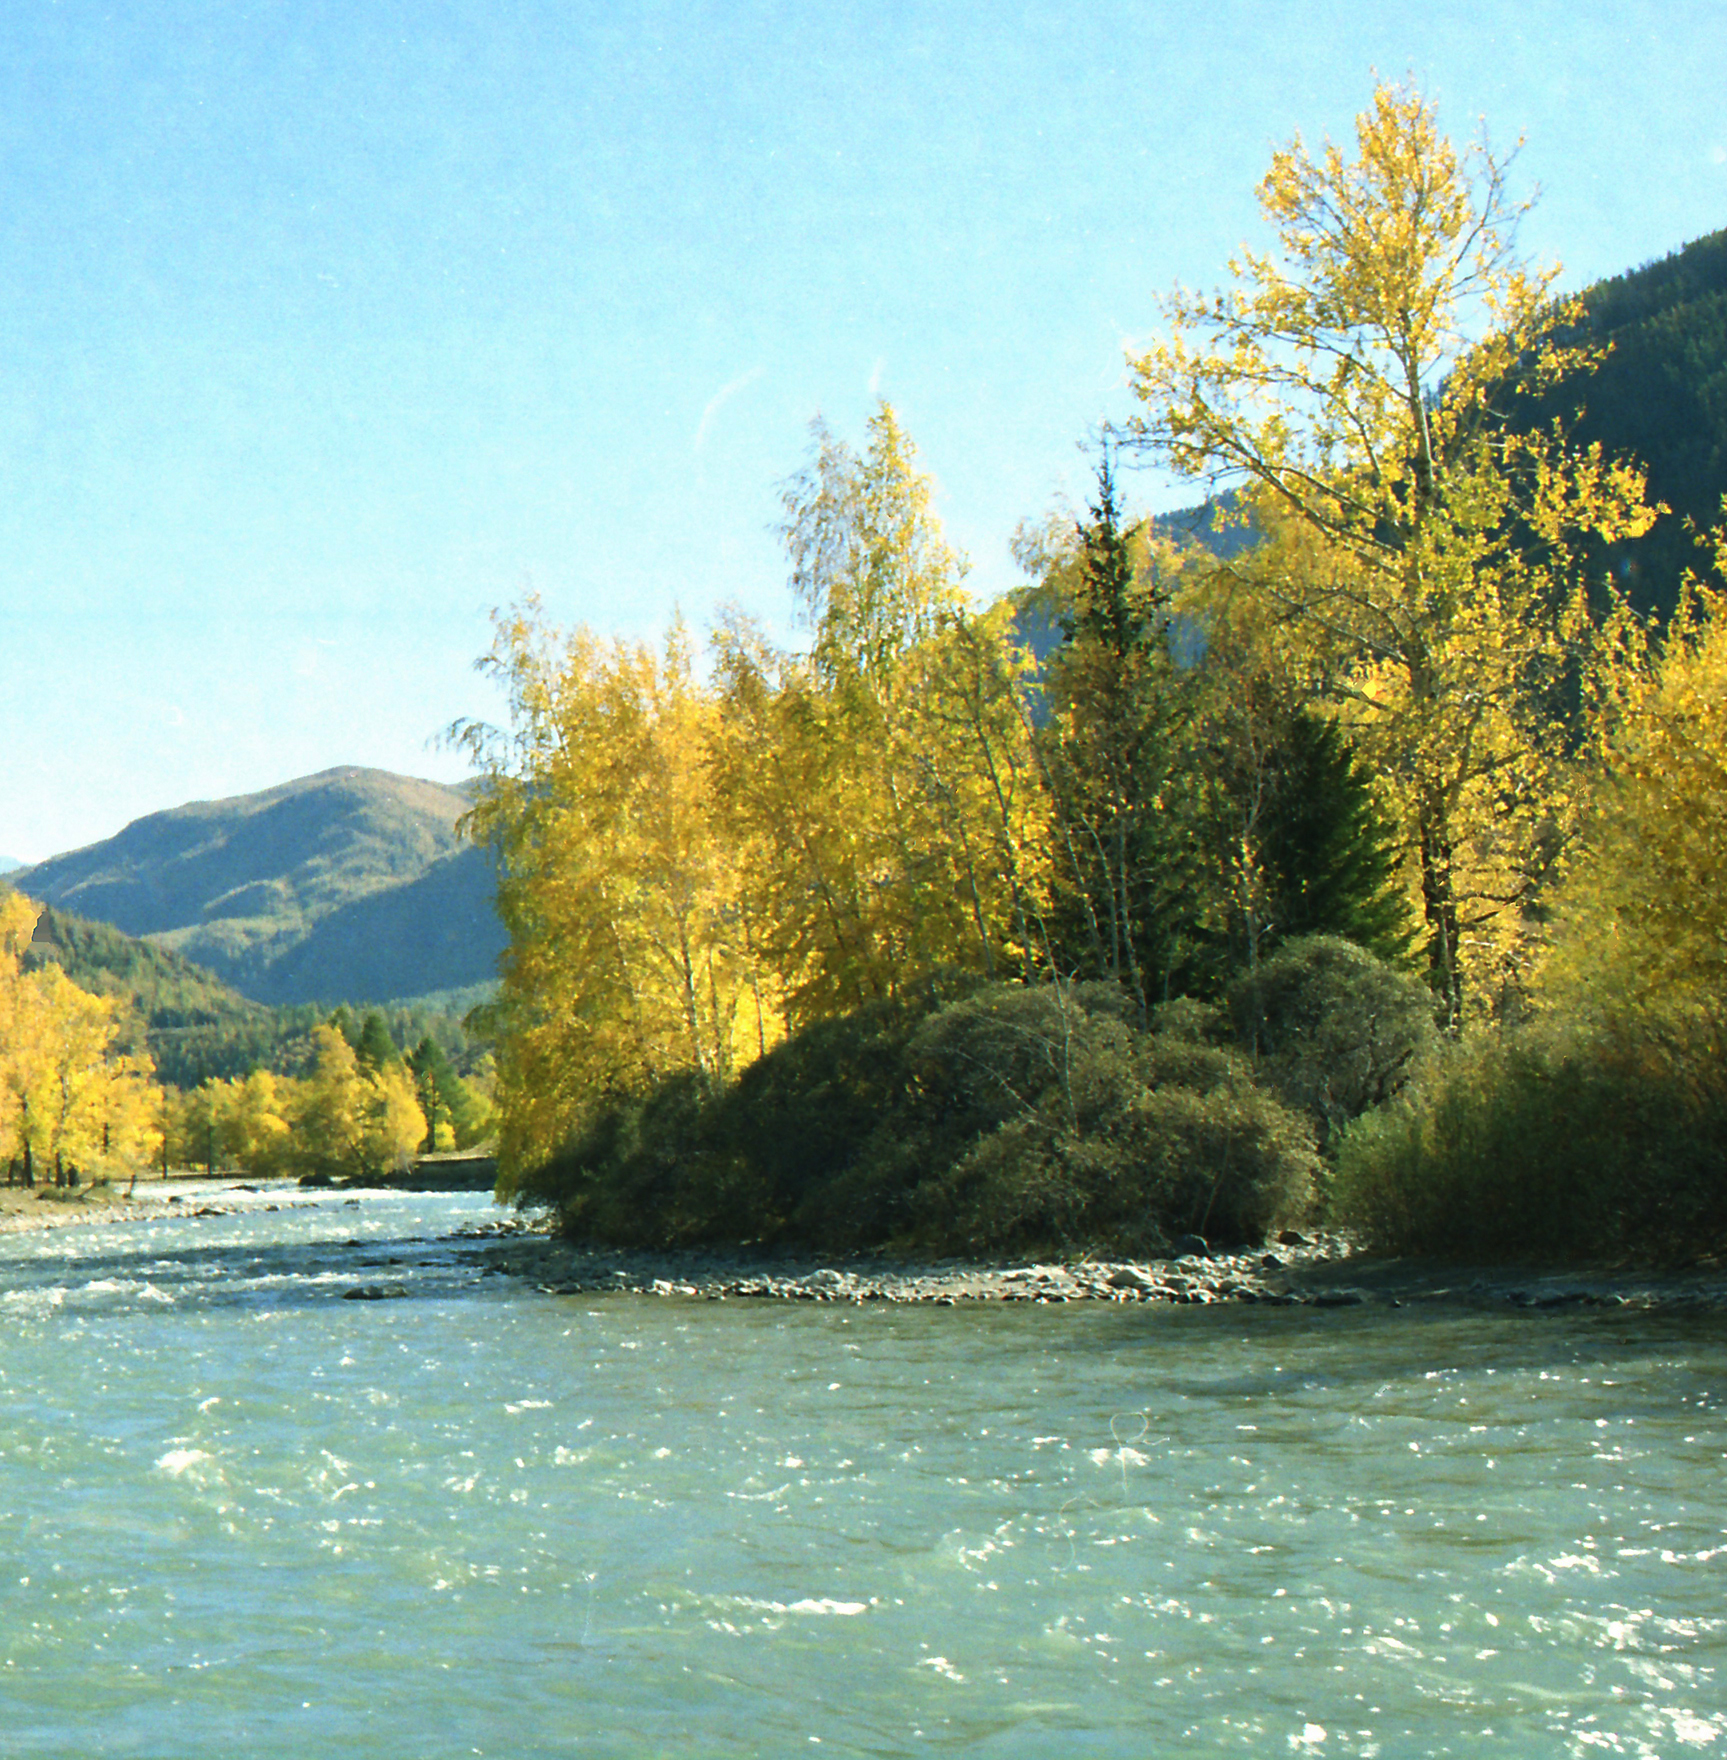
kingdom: Plantae
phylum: Tracheophyta
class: Magnoliopsida
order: Rosales
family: Elaeagnaceae
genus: Hippophae
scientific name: Hippophae rhamnoides
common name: Sea-buckthorn
